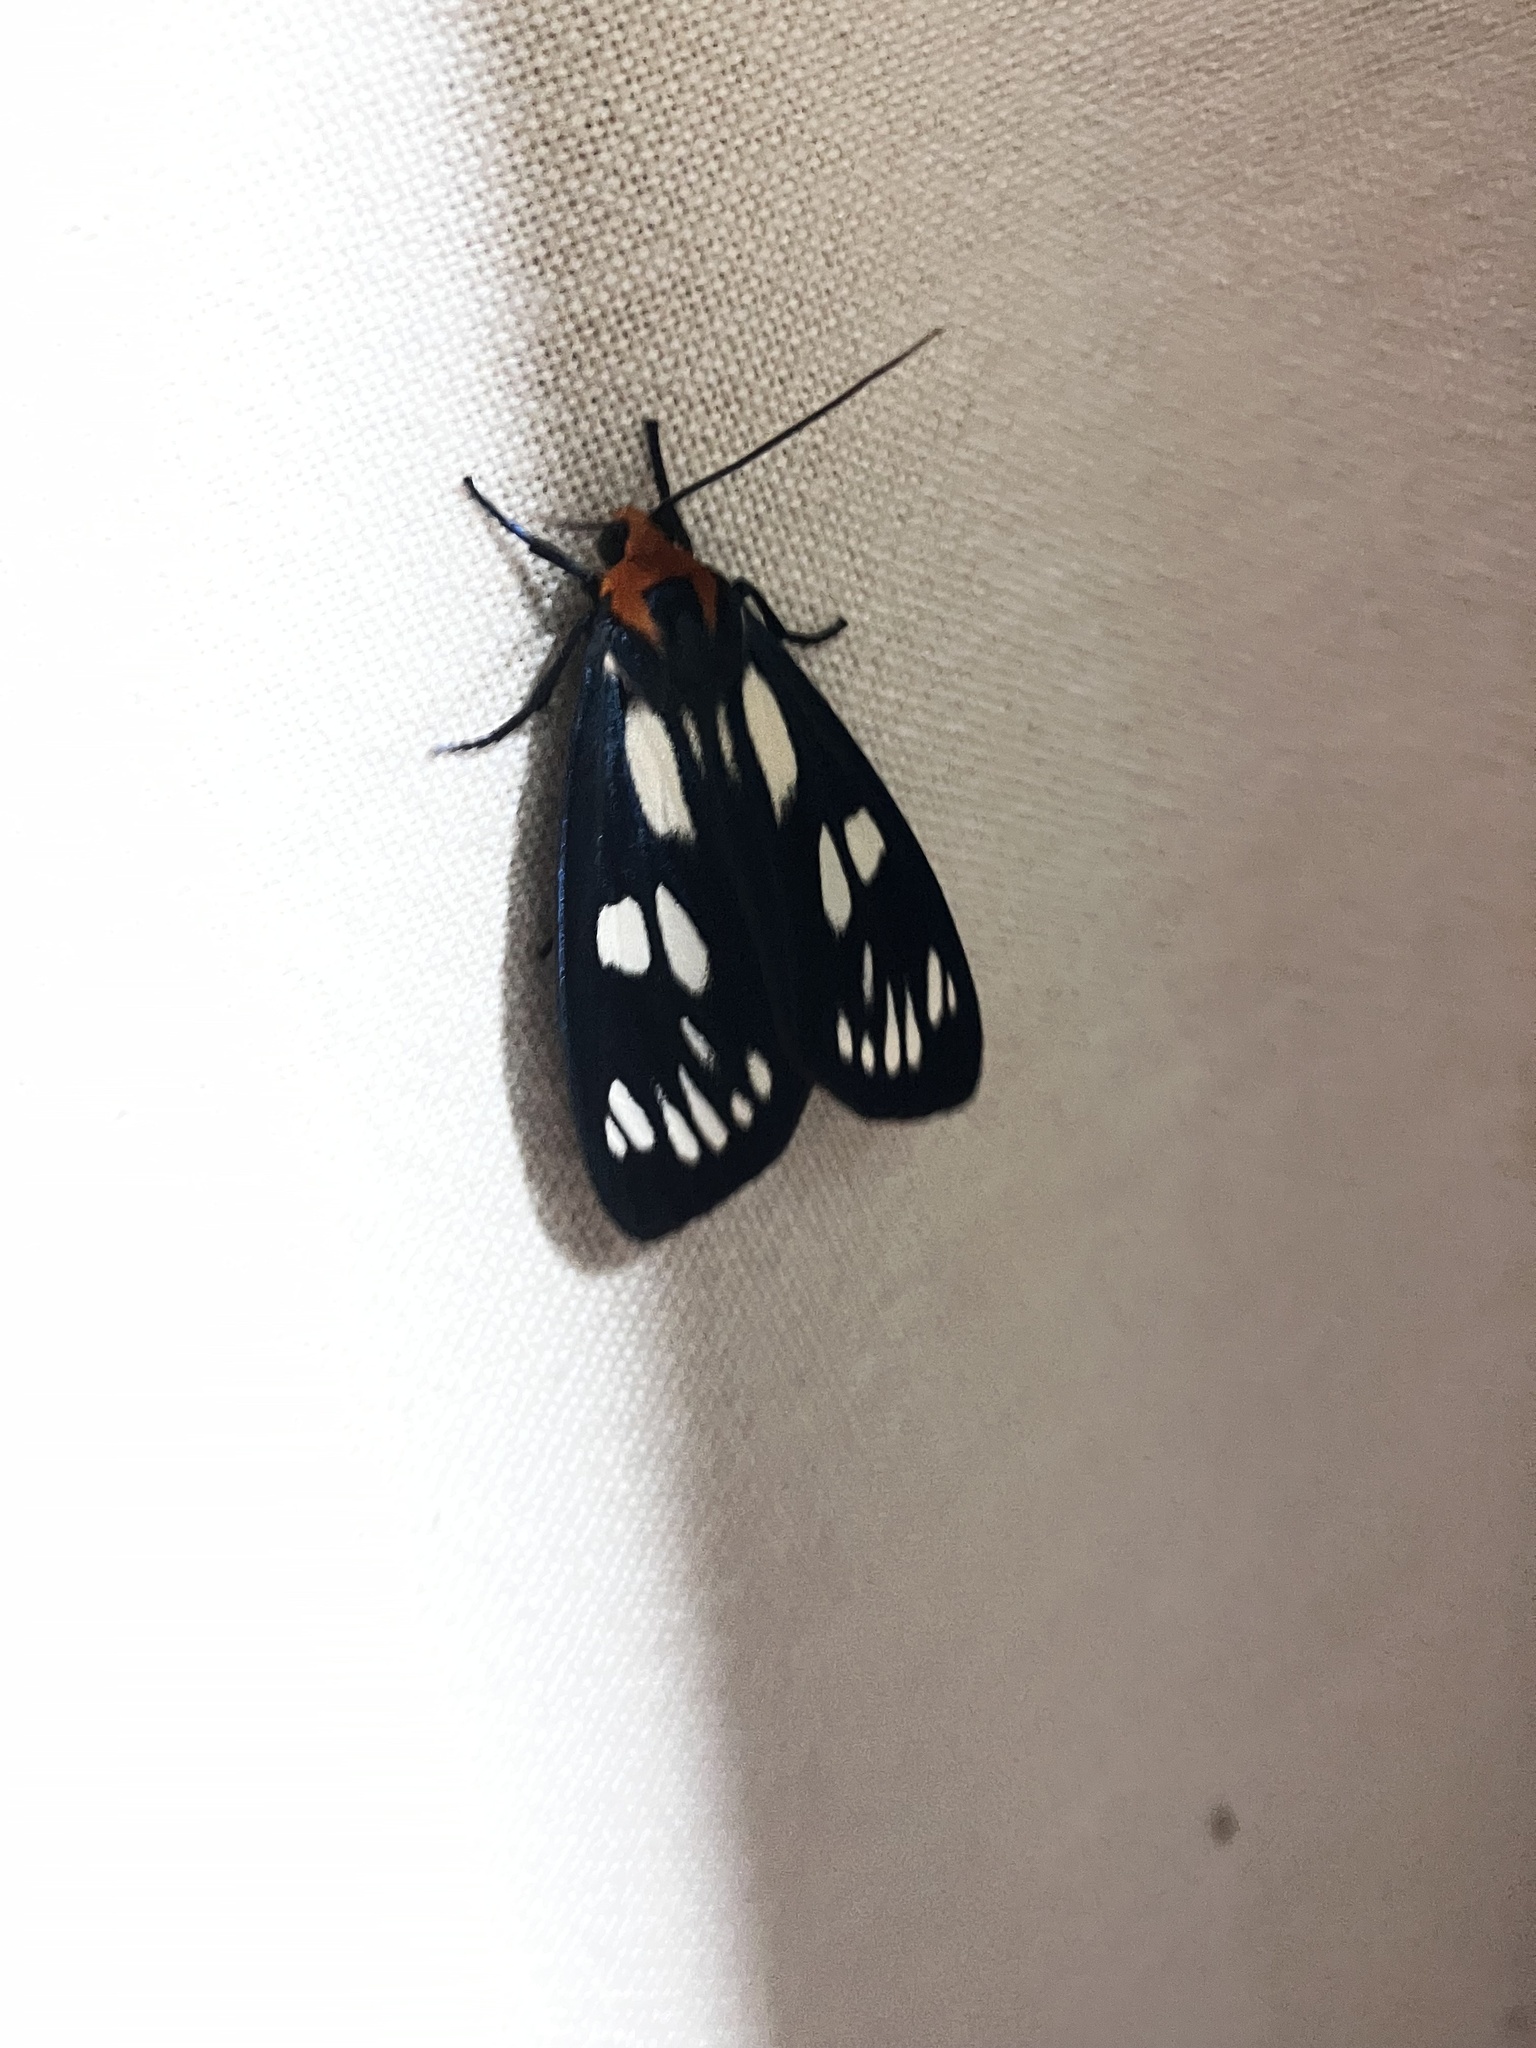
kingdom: Animalia
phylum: Arthropoda
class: Insecta
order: Lepidoptera
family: Erebidae
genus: Macrobrochis
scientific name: Macrobrochis gigas
